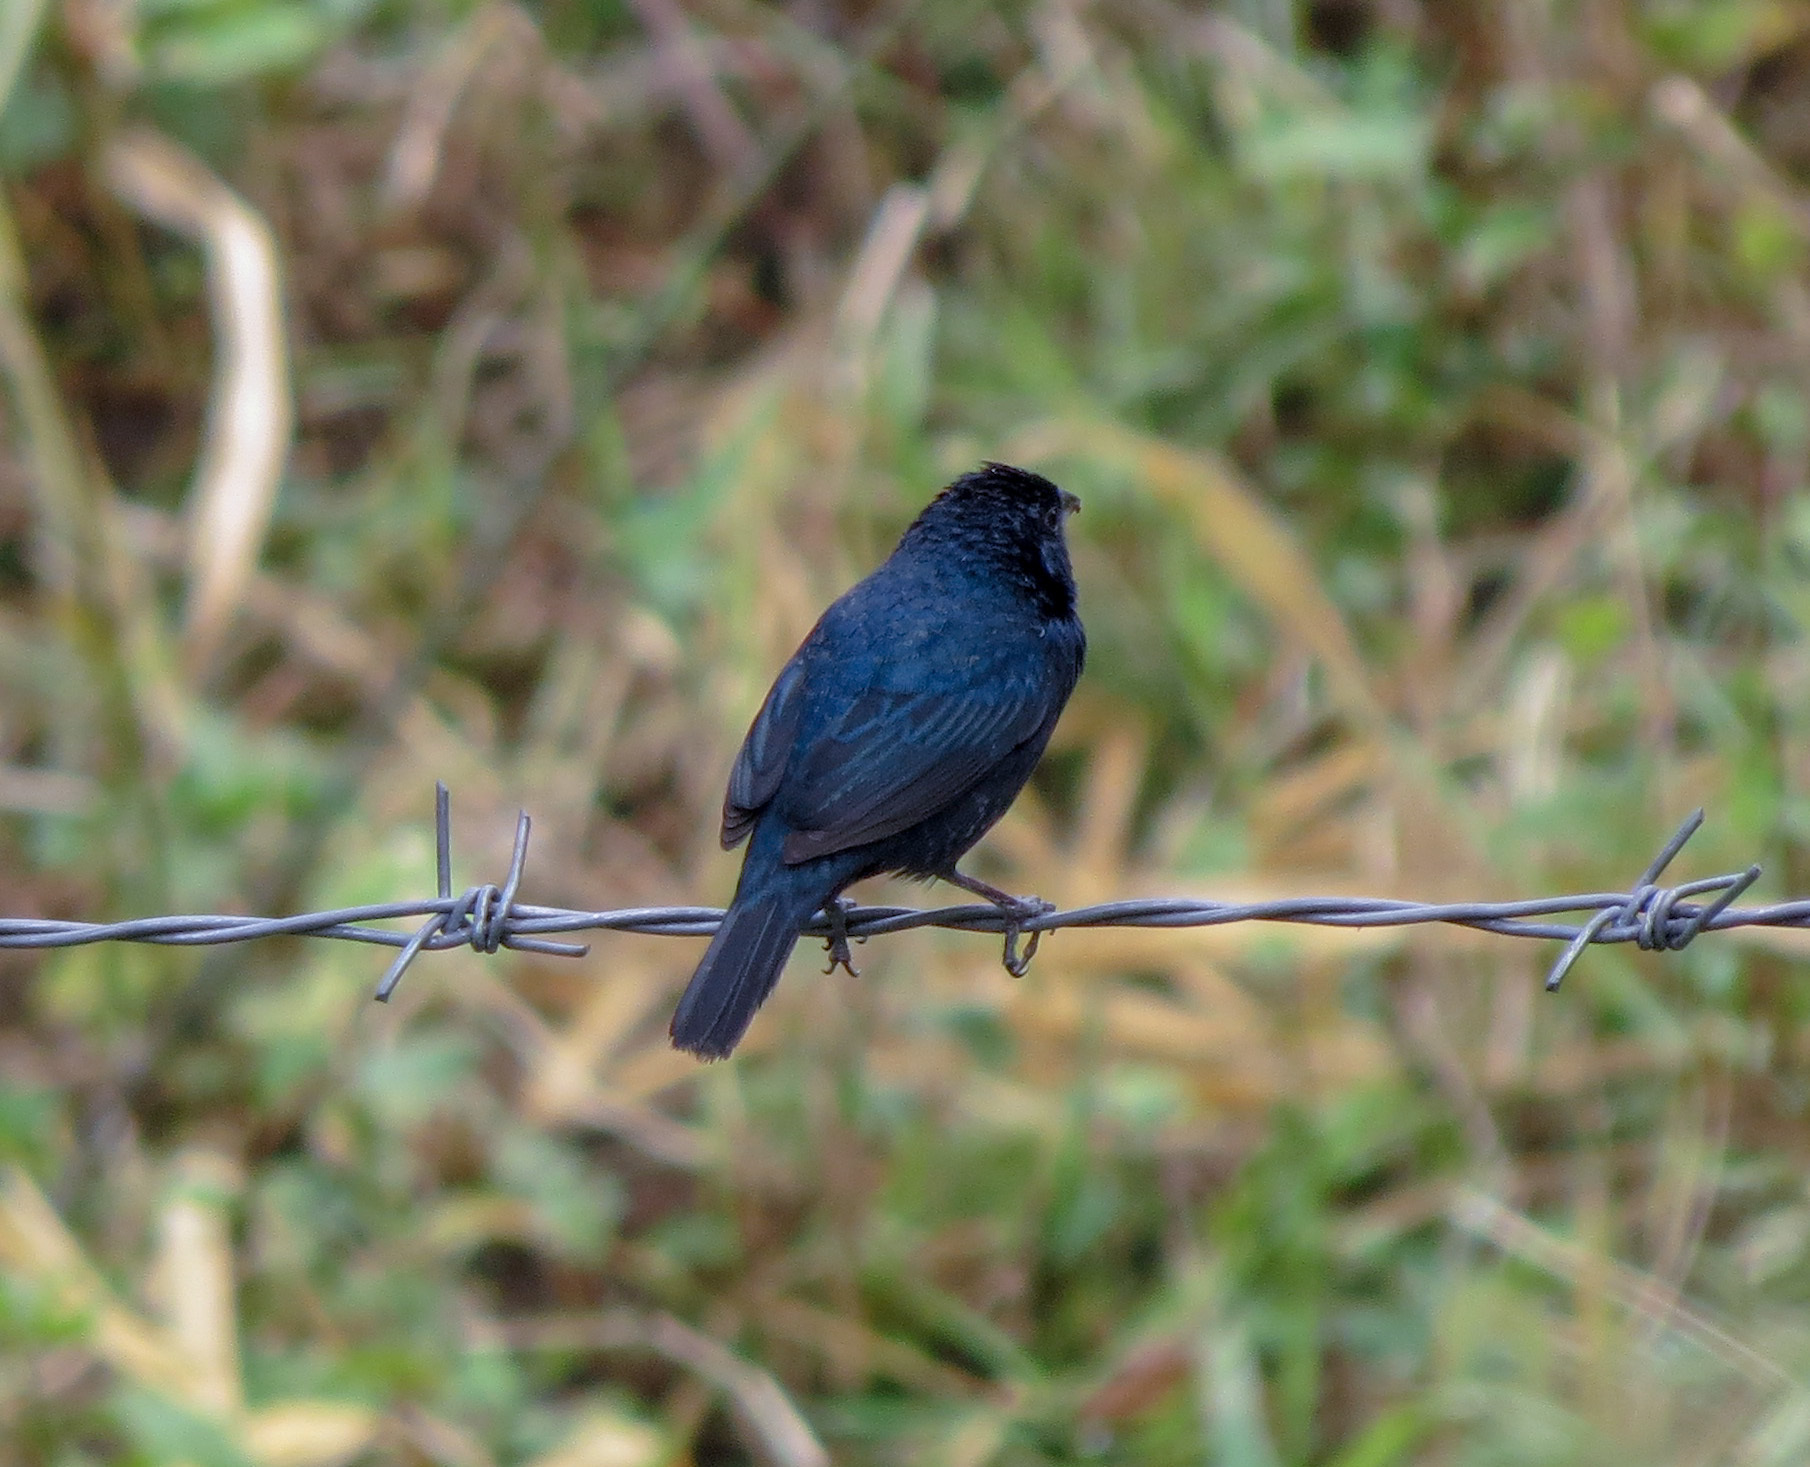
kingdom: Animalia
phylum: Chordata
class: Aves
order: Passeriformes
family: Thraupidae
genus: Volatinia
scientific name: Volatinia jacarina
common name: Blue-black grassquit
